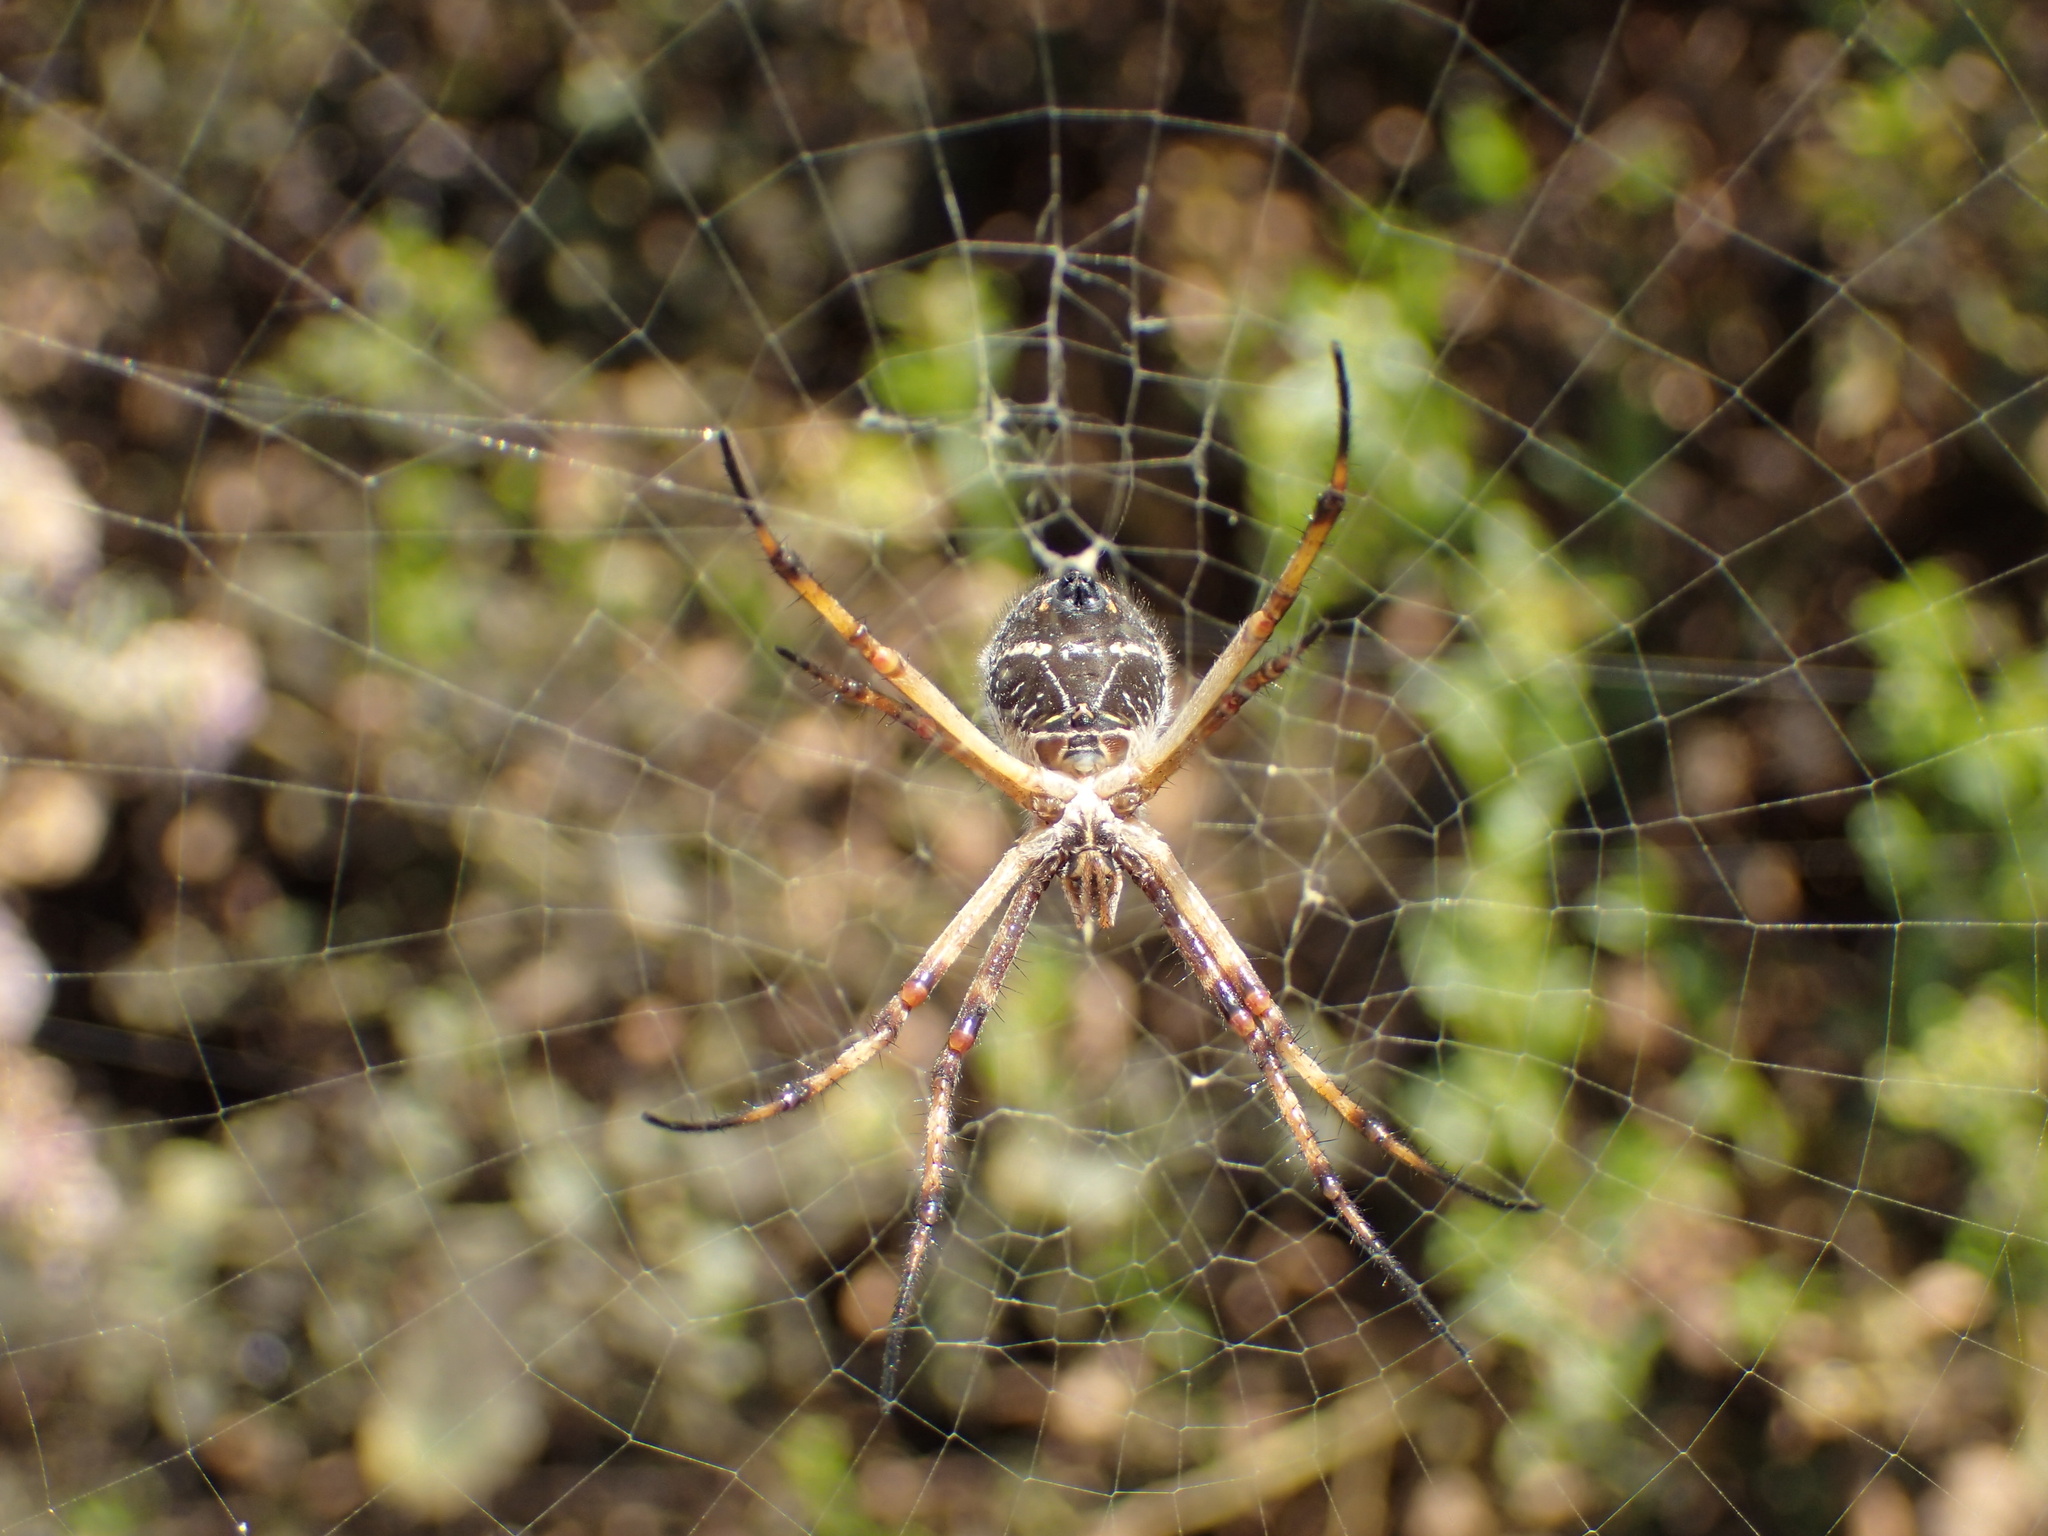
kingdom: Animalia
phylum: Arthropoda
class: Arachnida
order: Araneae
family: Araneidae
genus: Argiope
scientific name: Argiope argentata
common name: Orb weavers
